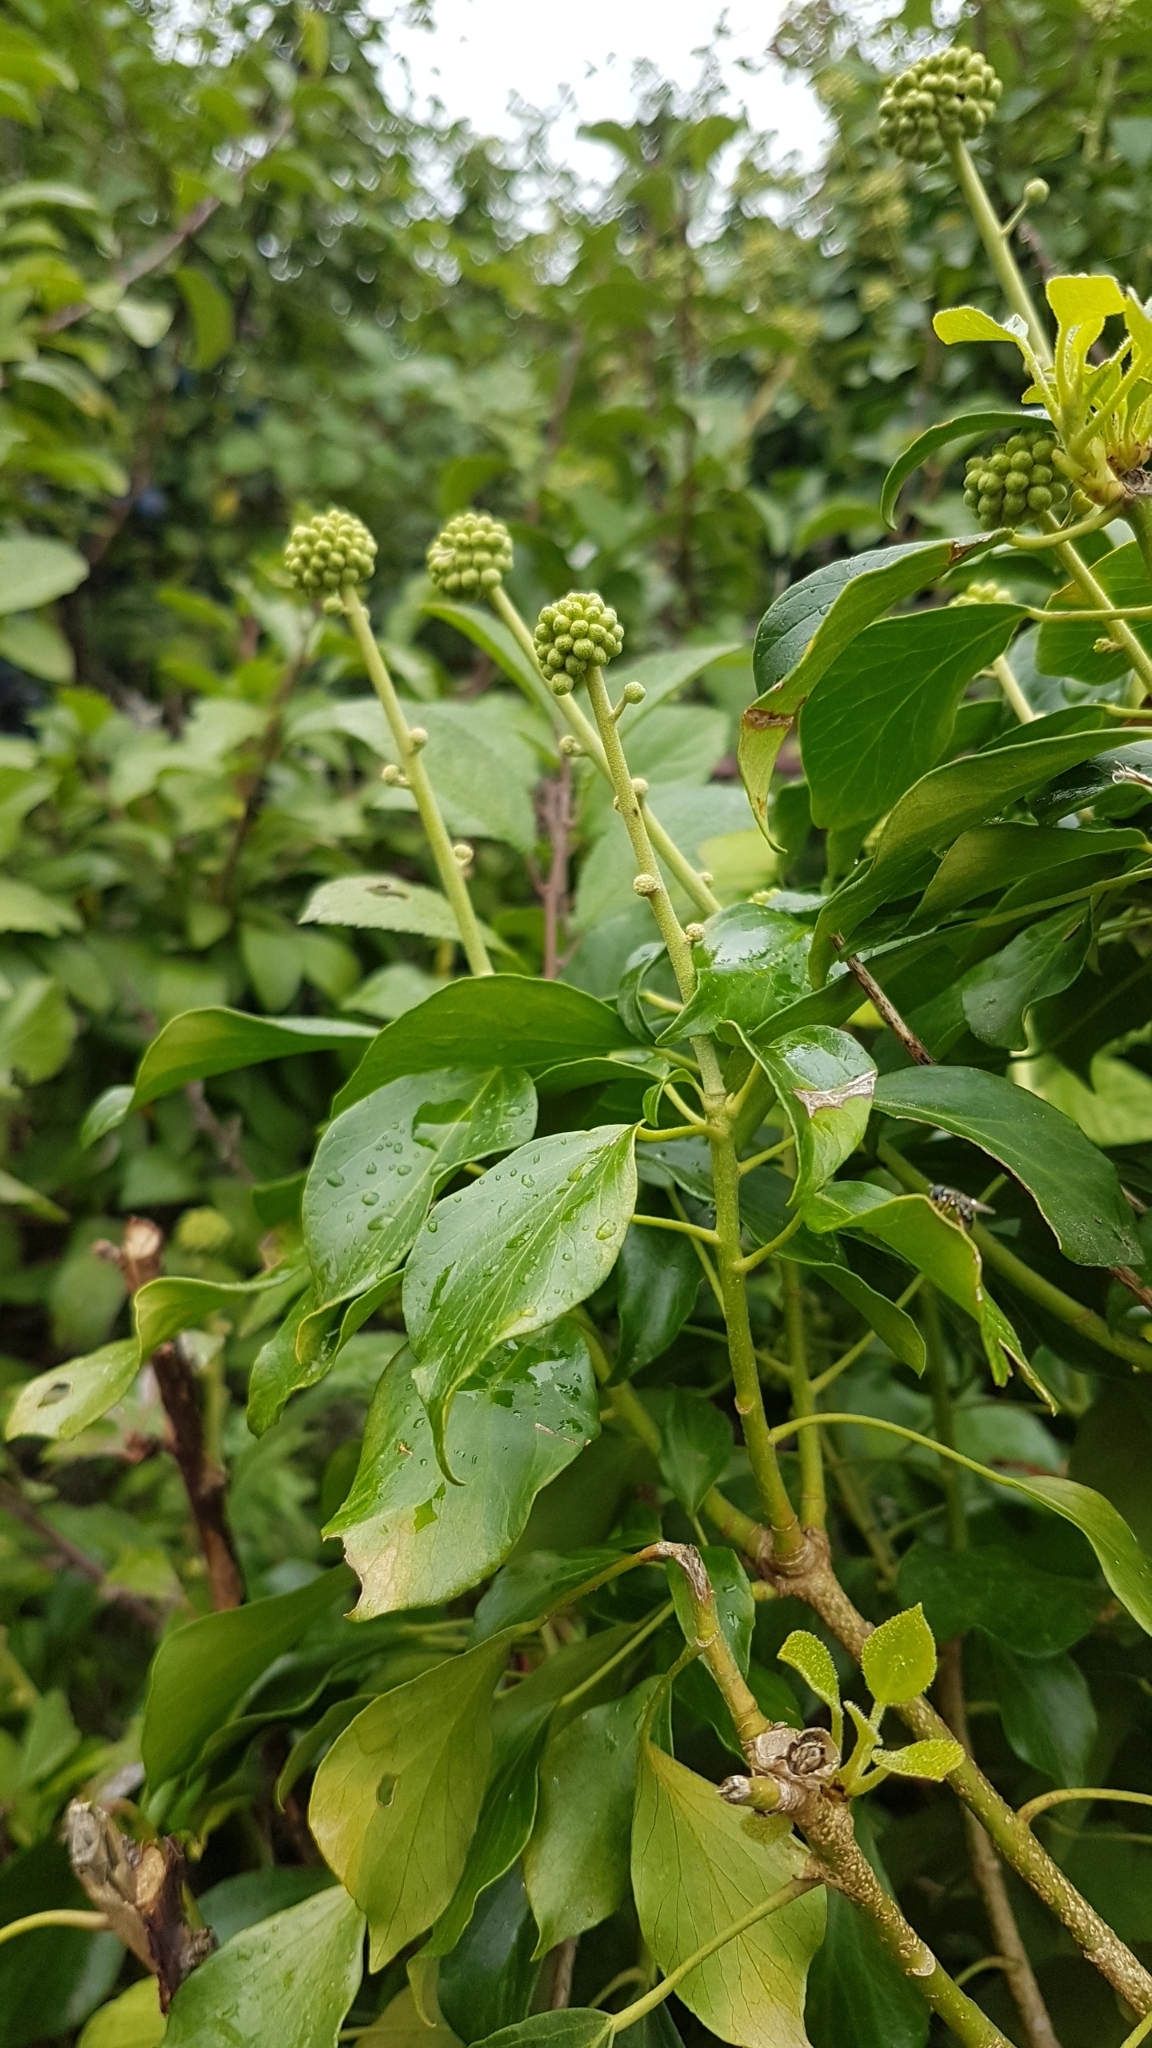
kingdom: Plantae
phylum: Tracheophyta
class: Magnoliopsida
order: Apiales
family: Araliaceae
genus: Hedera
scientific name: Hedera helix
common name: Ivy
